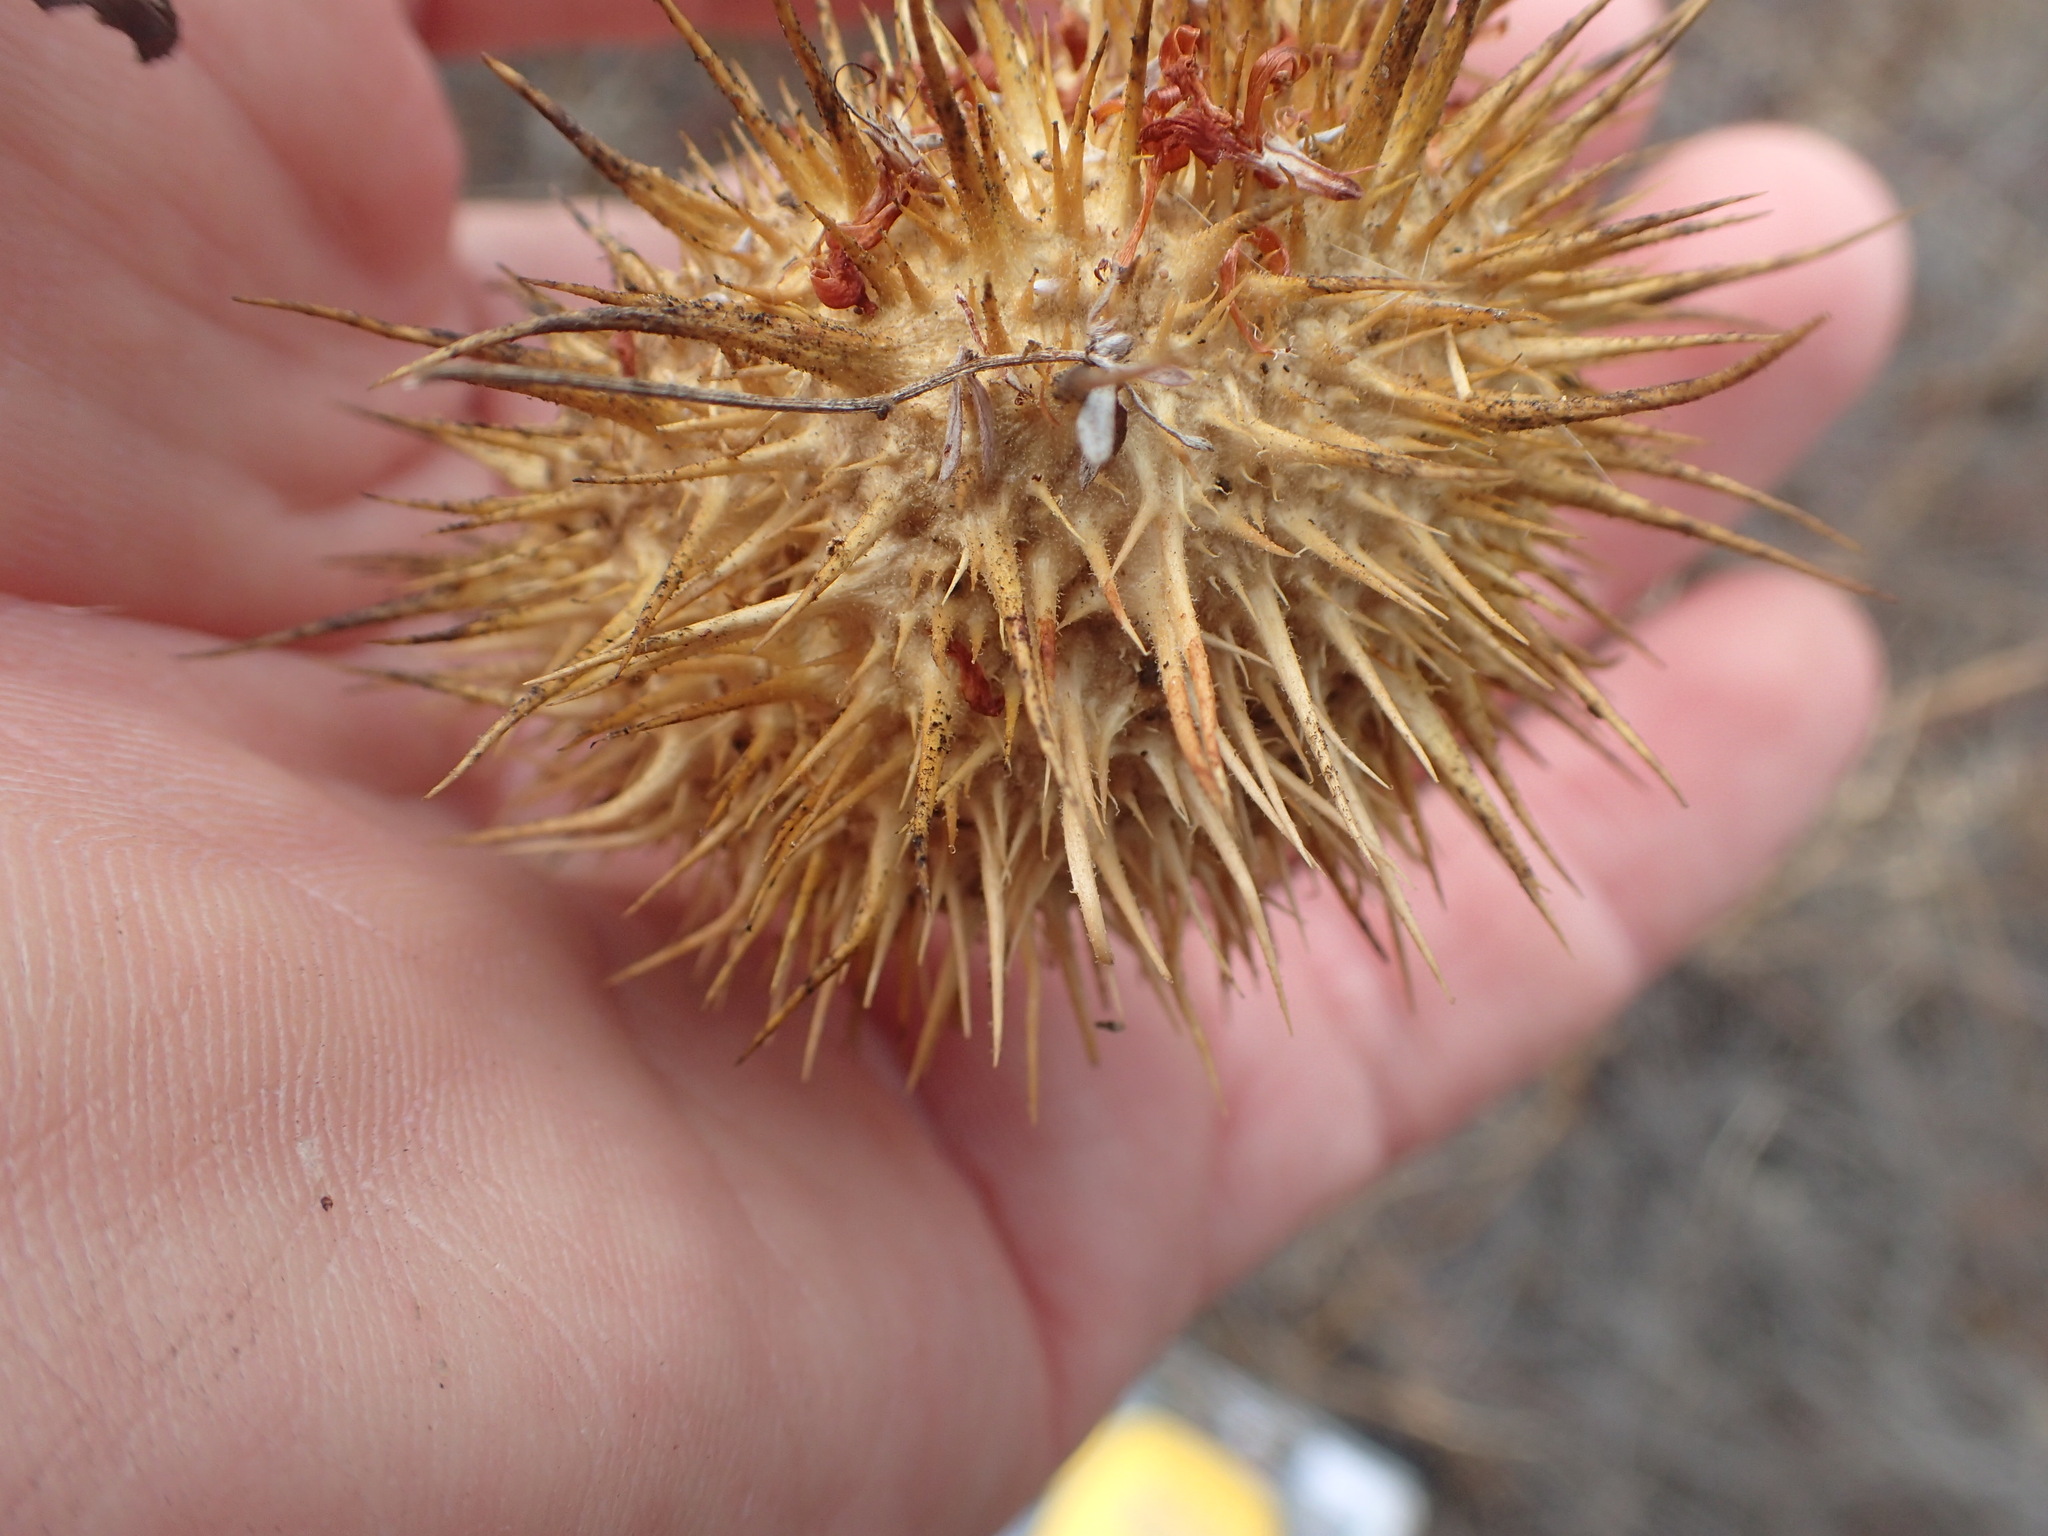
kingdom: Plantae
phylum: Tracheophyta
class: Magnoliopsida
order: Cucurbitales
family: Cucurbitaceae
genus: Marah
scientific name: Marah fabacea
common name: California manroot
